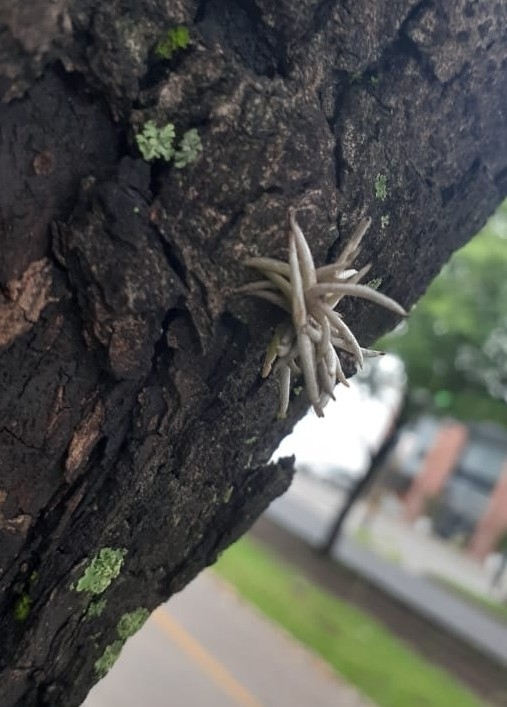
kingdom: Plantae
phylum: Tracheophyta
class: Liliopsida
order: Poales
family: Bromeliaceae
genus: Tillandsia
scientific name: Tillandsia recurvata
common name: Small ballmoss
